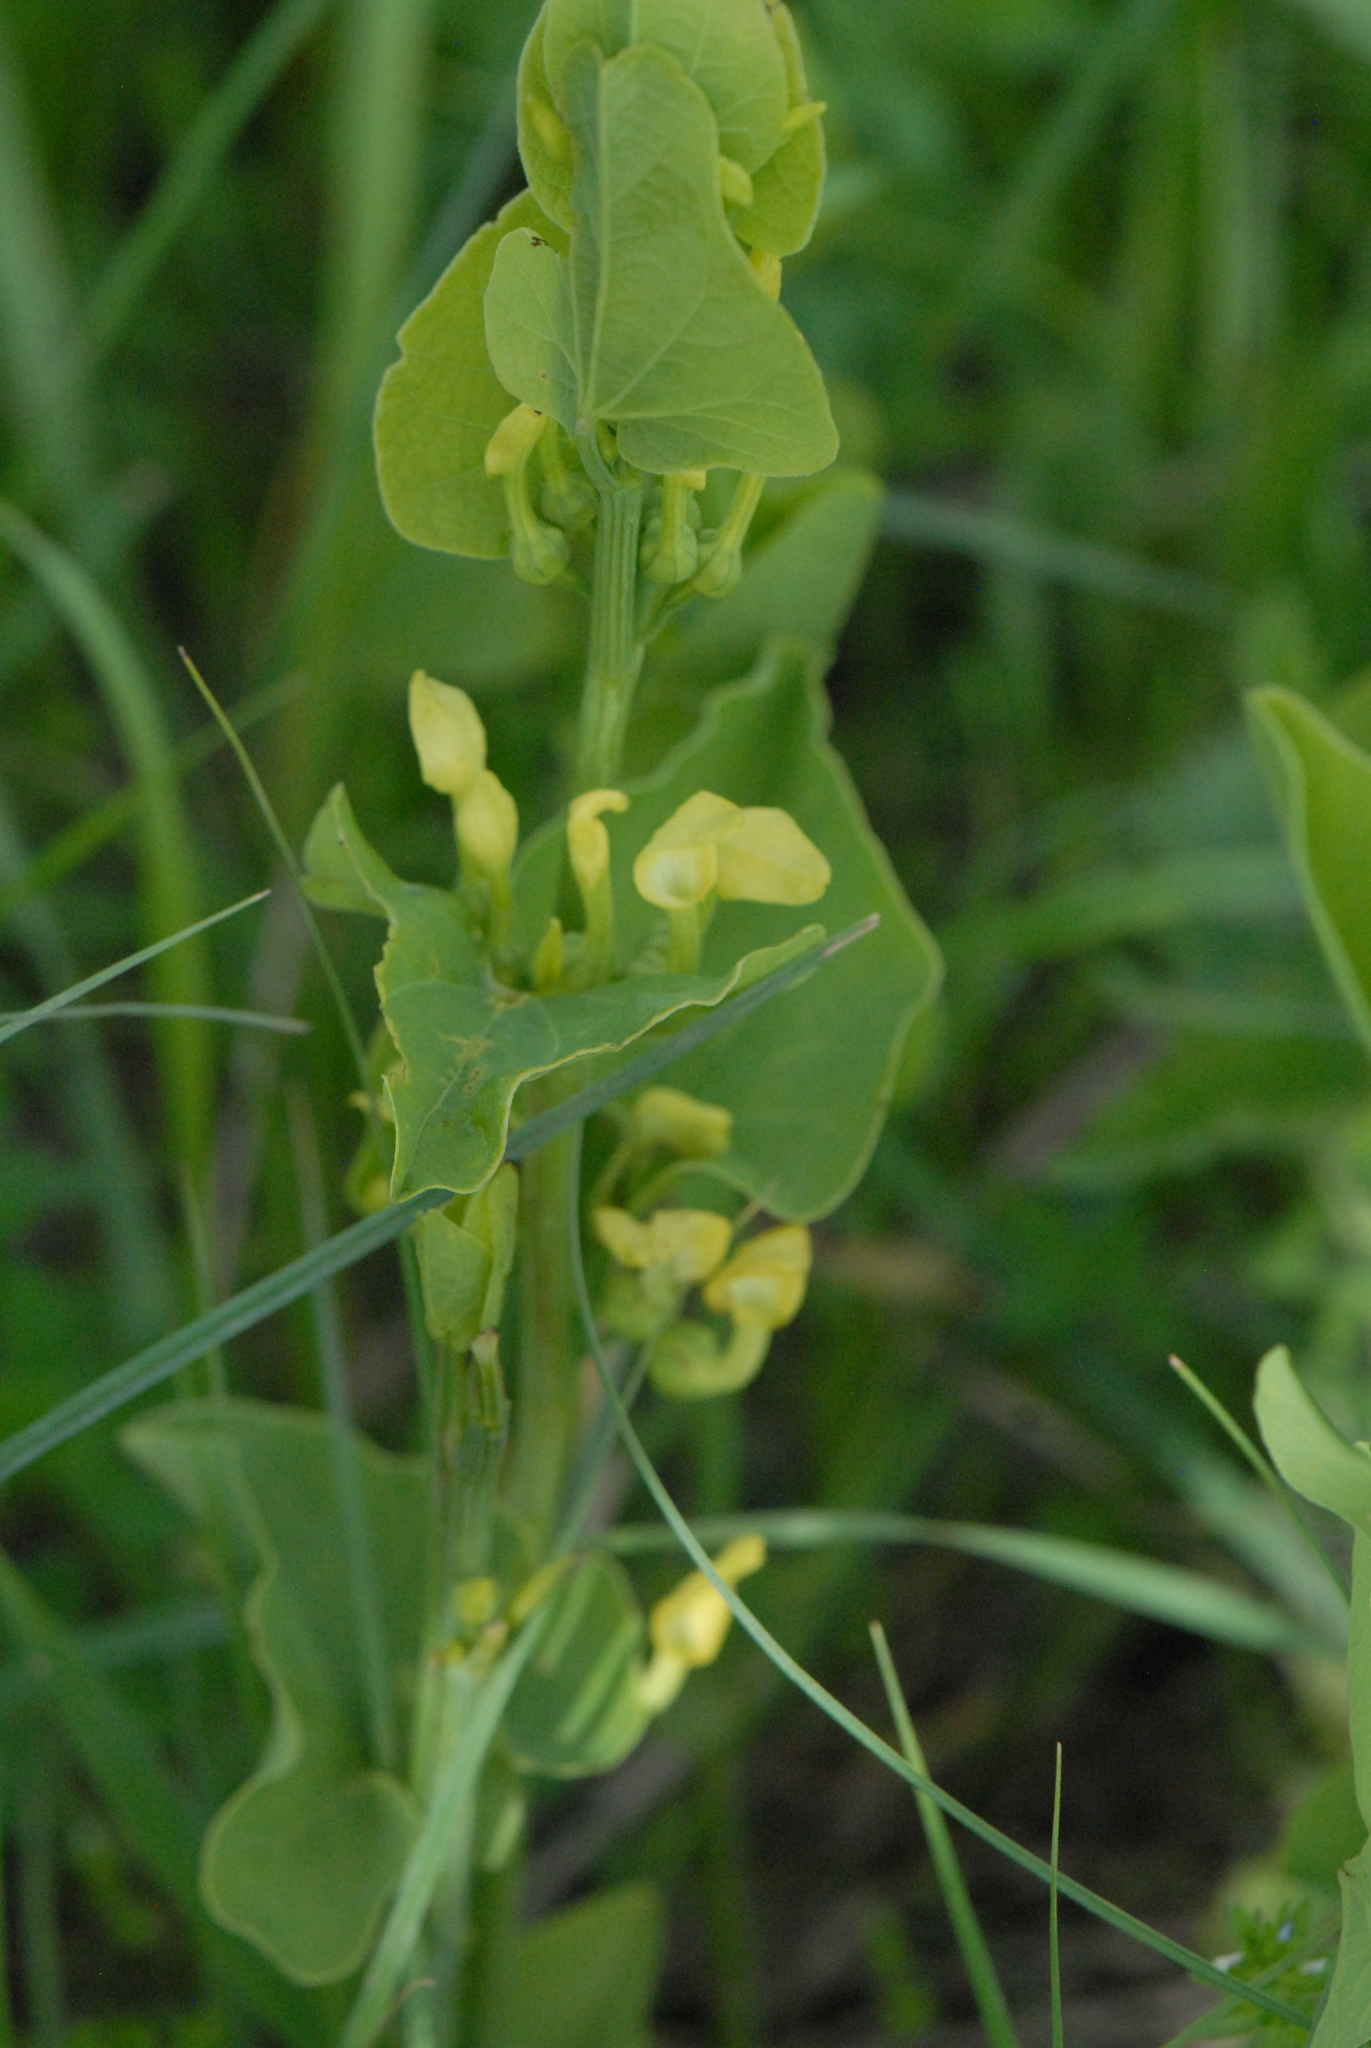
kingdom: Plantae
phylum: Tracheophyta
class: Magnoliopsida
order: Piperales
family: Aristolochiaceae
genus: Aristolochia
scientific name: Aristolochia clematitis
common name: Birthwort
